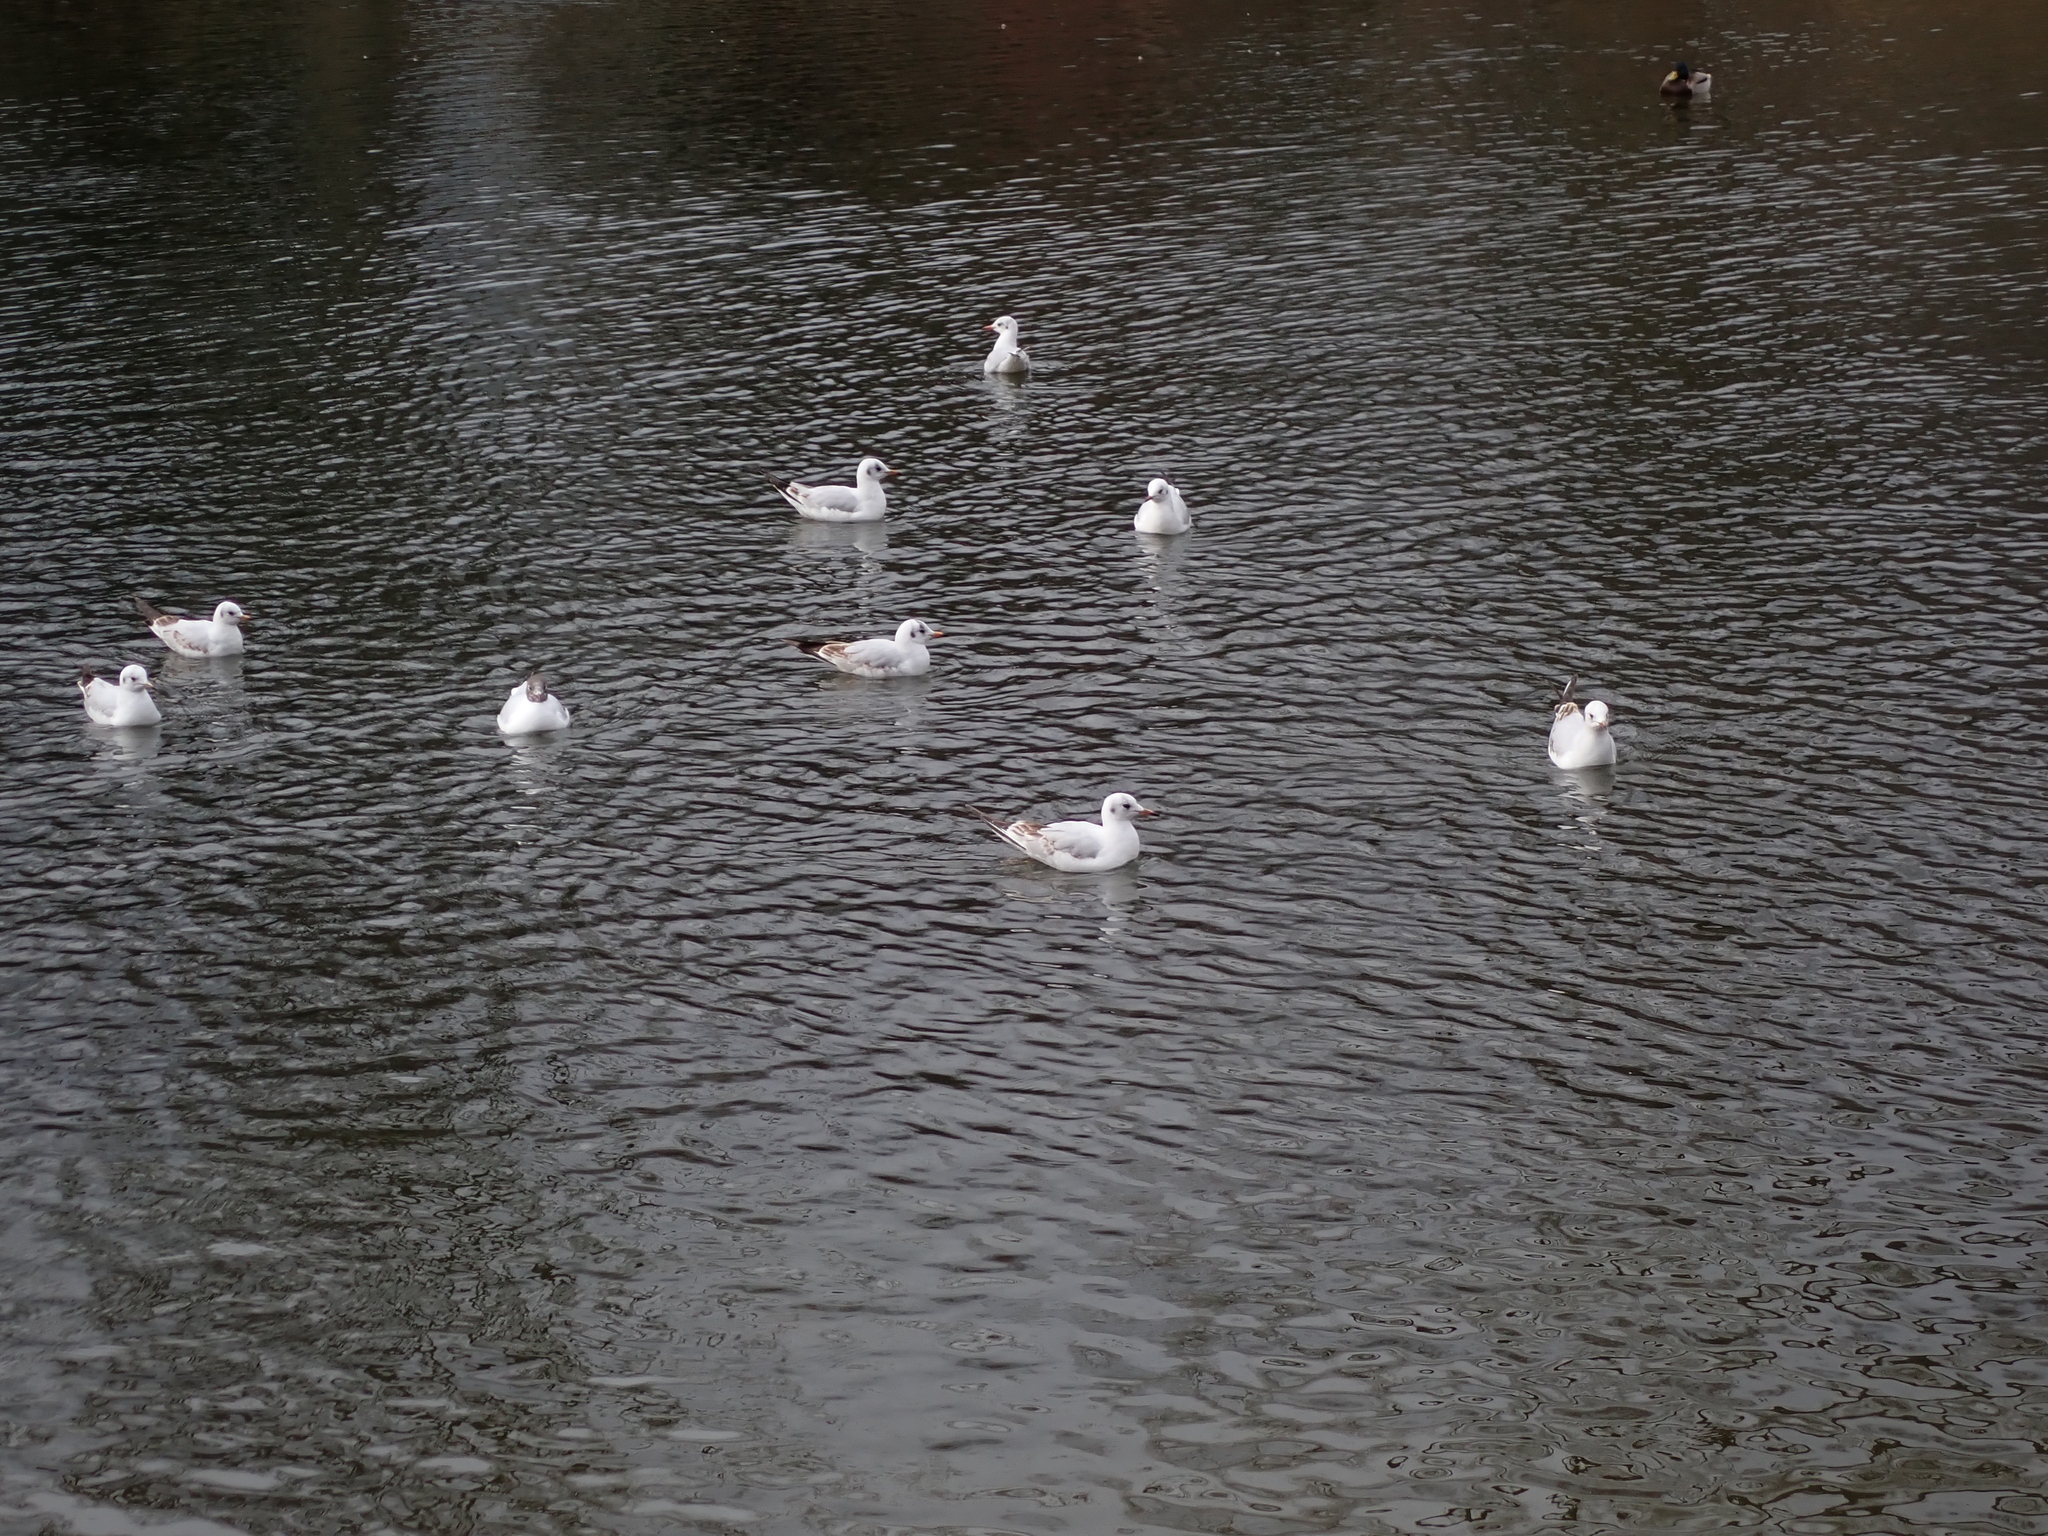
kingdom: Animalia
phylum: Chordata
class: Aves
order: Charadriiformes
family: Laridae
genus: Chroicocephalus
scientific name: Chroicocephalus ridibundus
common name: Black-headed gull
